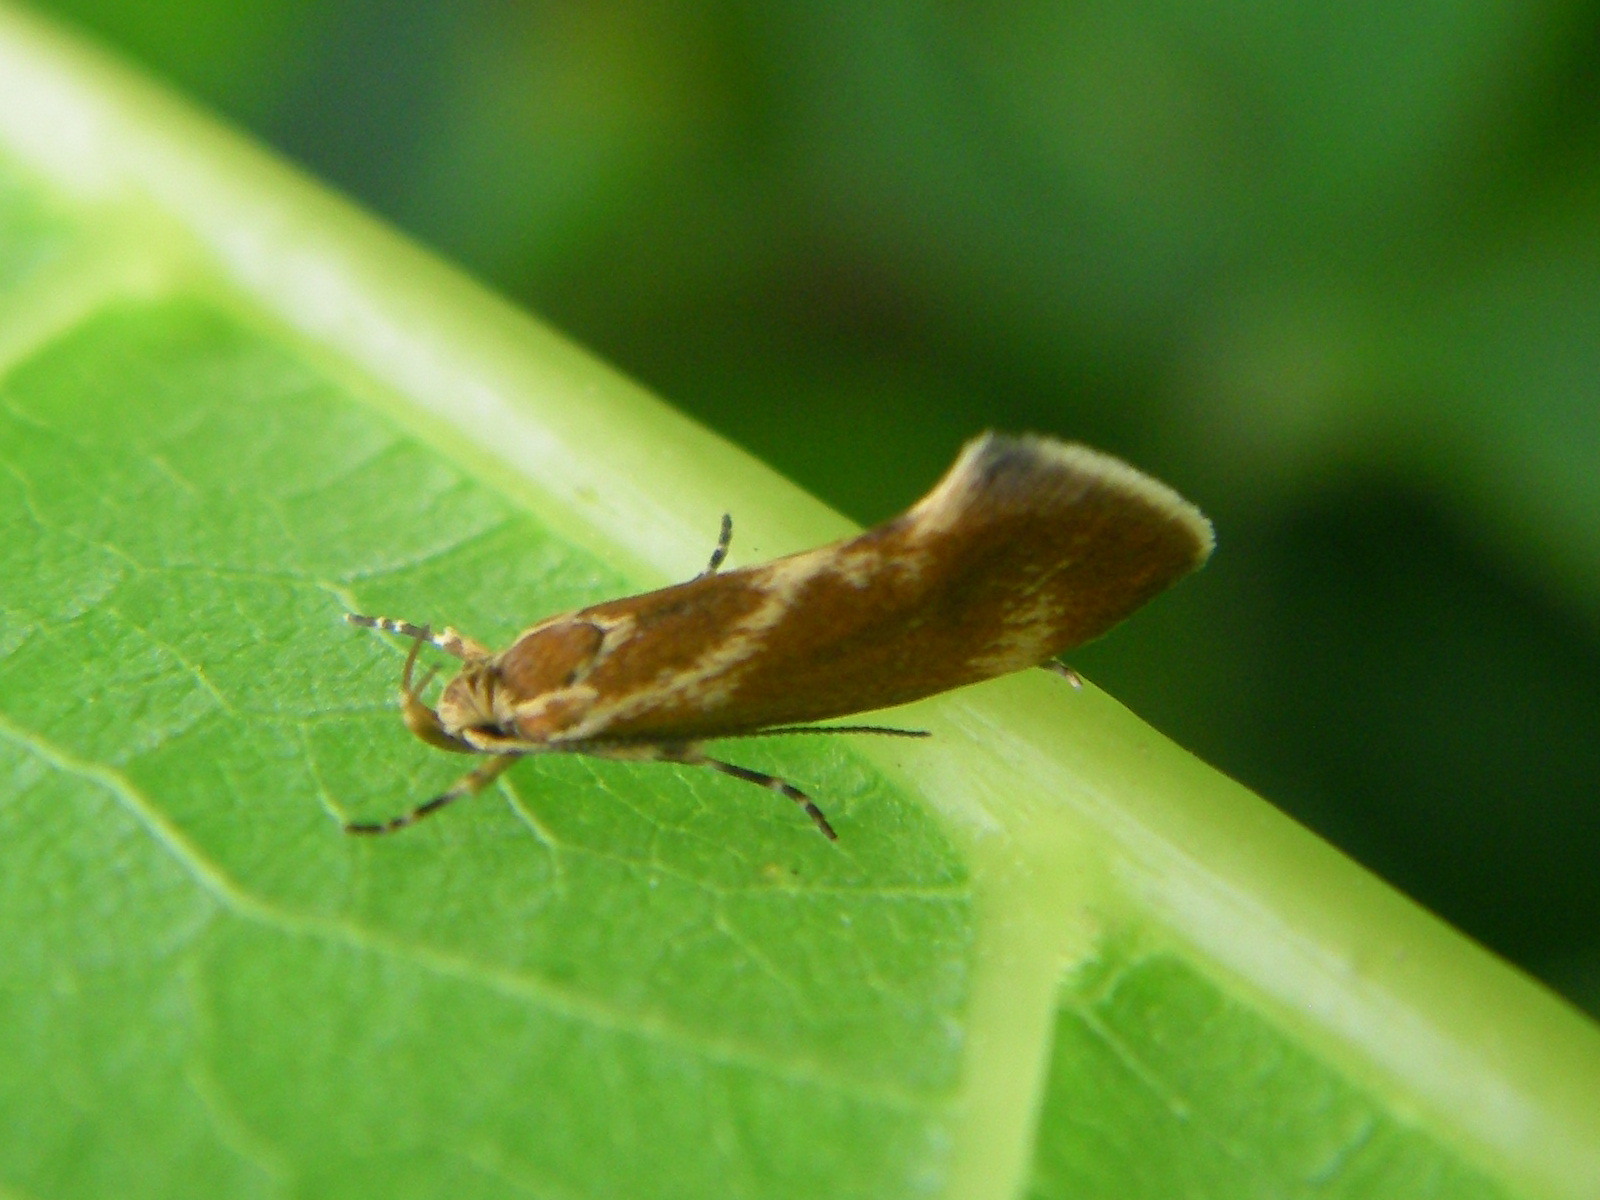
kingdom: Animalia
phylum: Arthropoda
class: Insecta
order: Lepidoptera
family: Oecophoridae
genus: Borkhausenia
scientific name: Borkhausenia italica
